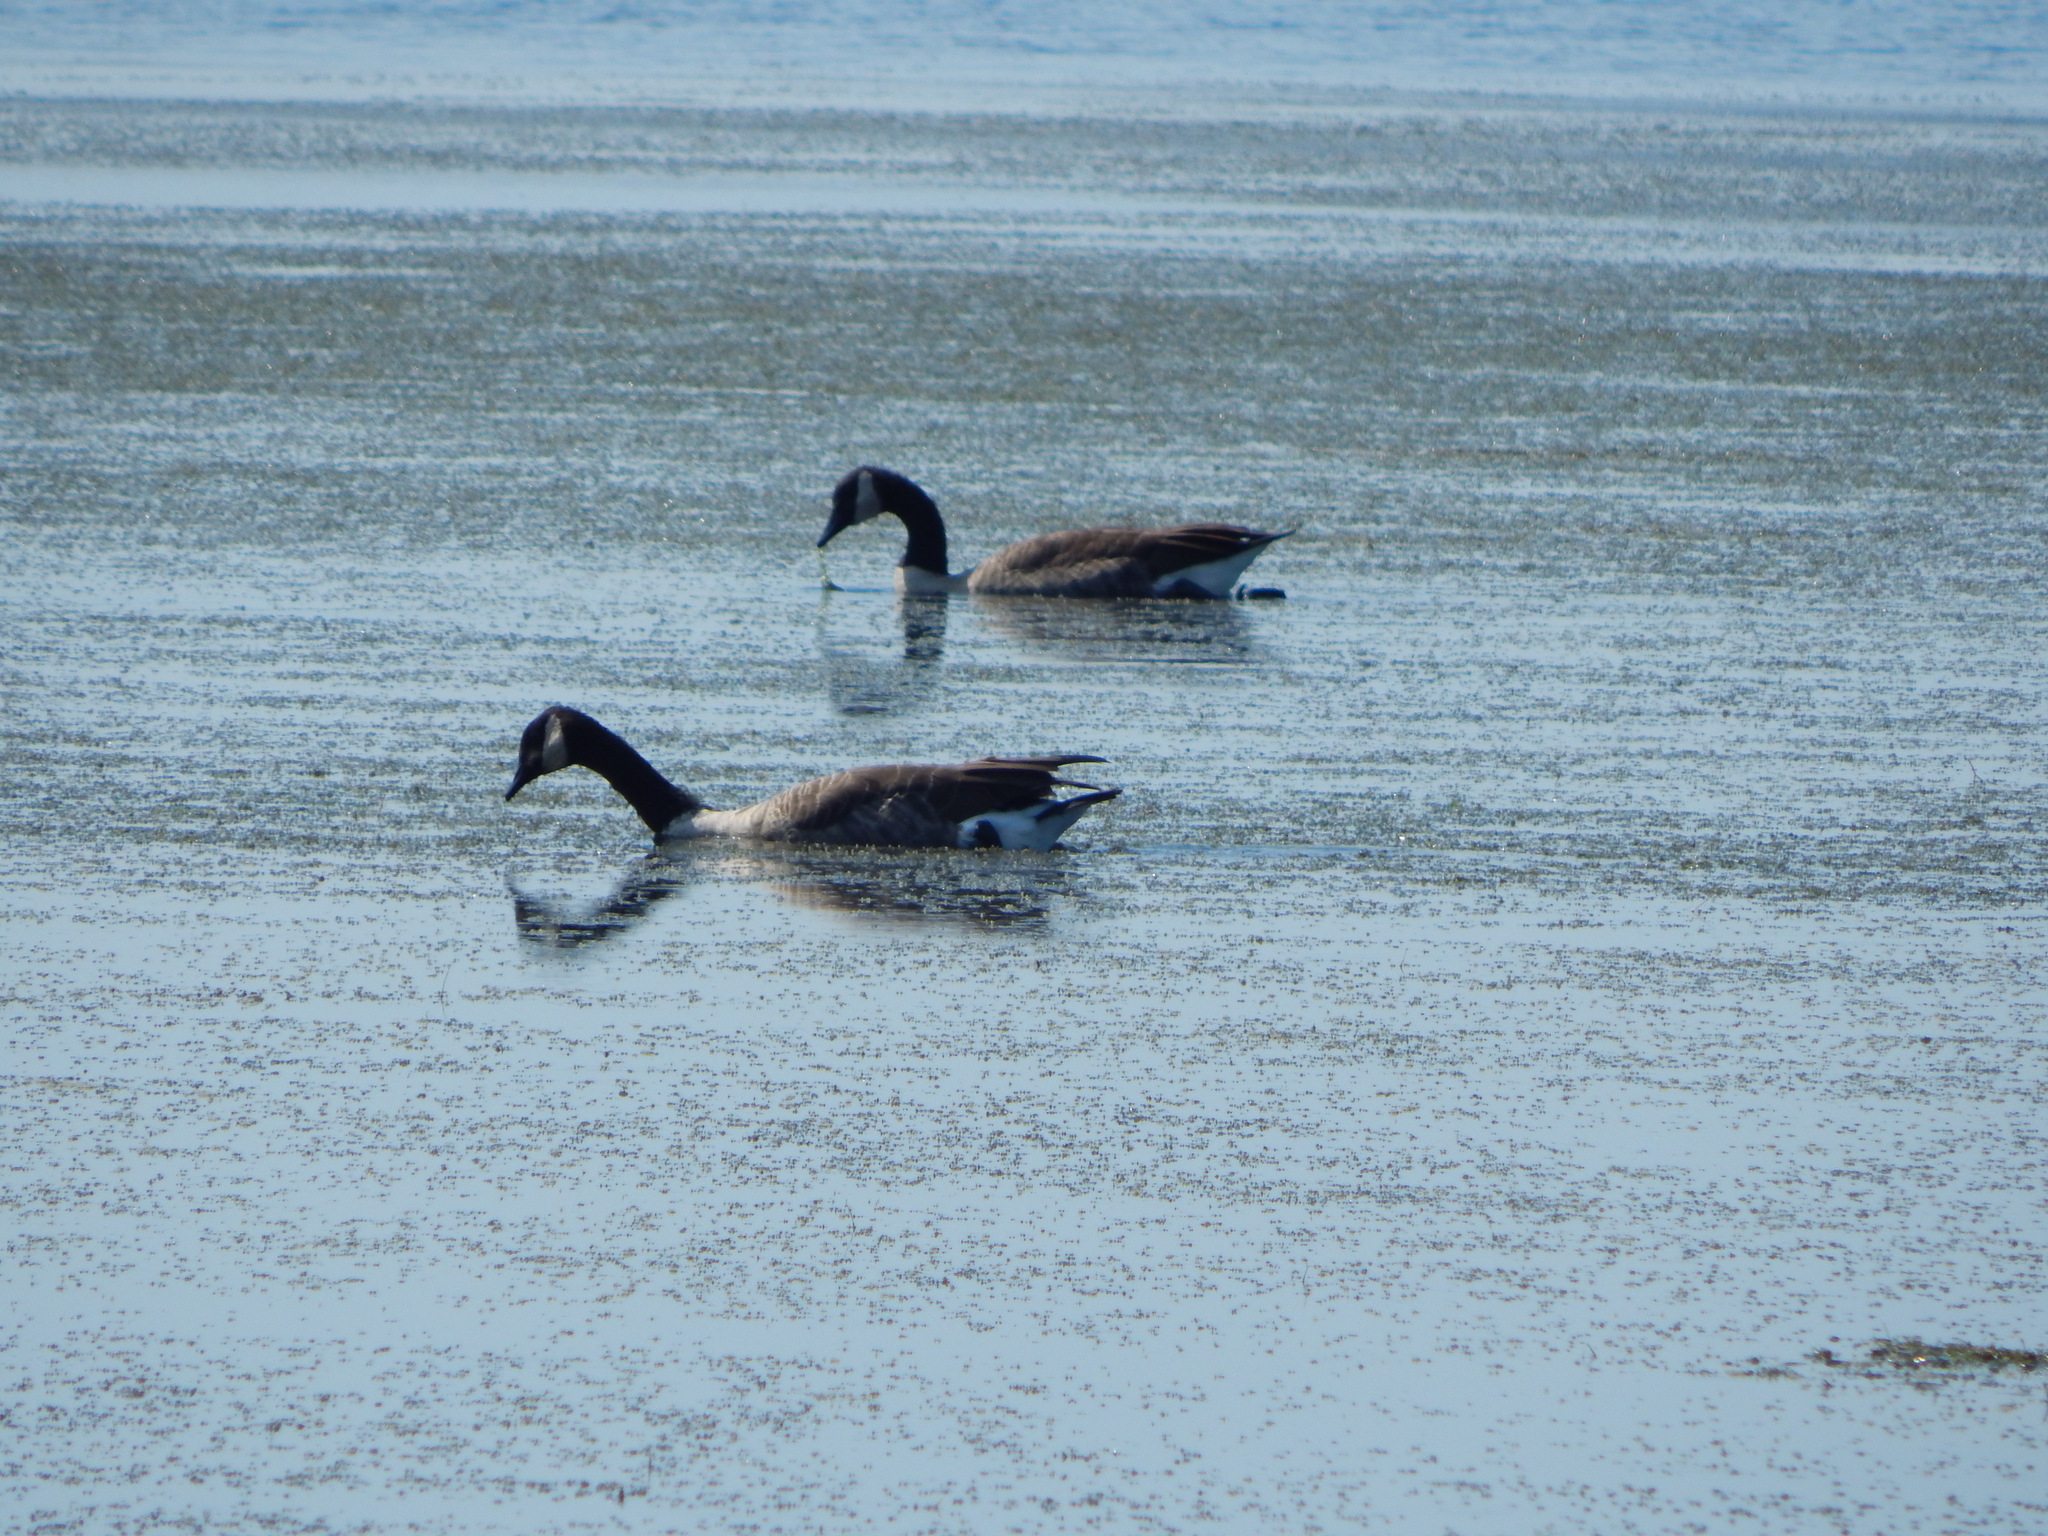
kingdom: Animalia
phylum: Chordata
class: Aves
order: Anseriformes
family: Anatidae
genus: Branta
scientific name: Branta canadensis
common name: Canada goose
